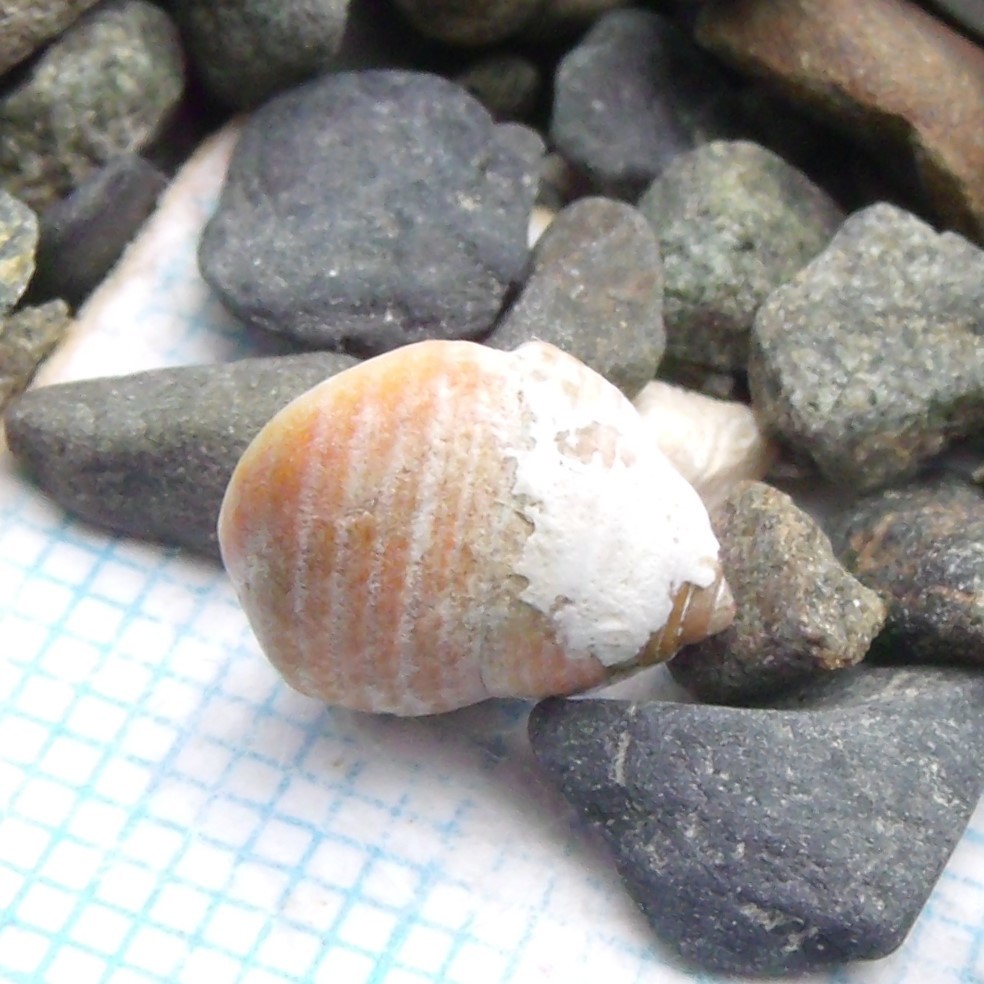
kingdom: Animalia
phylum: Mollusca
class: Gastropoda
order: Trochida
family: Trochidae
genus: Micrelenchus
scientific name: Micrelenchus sanguineus
